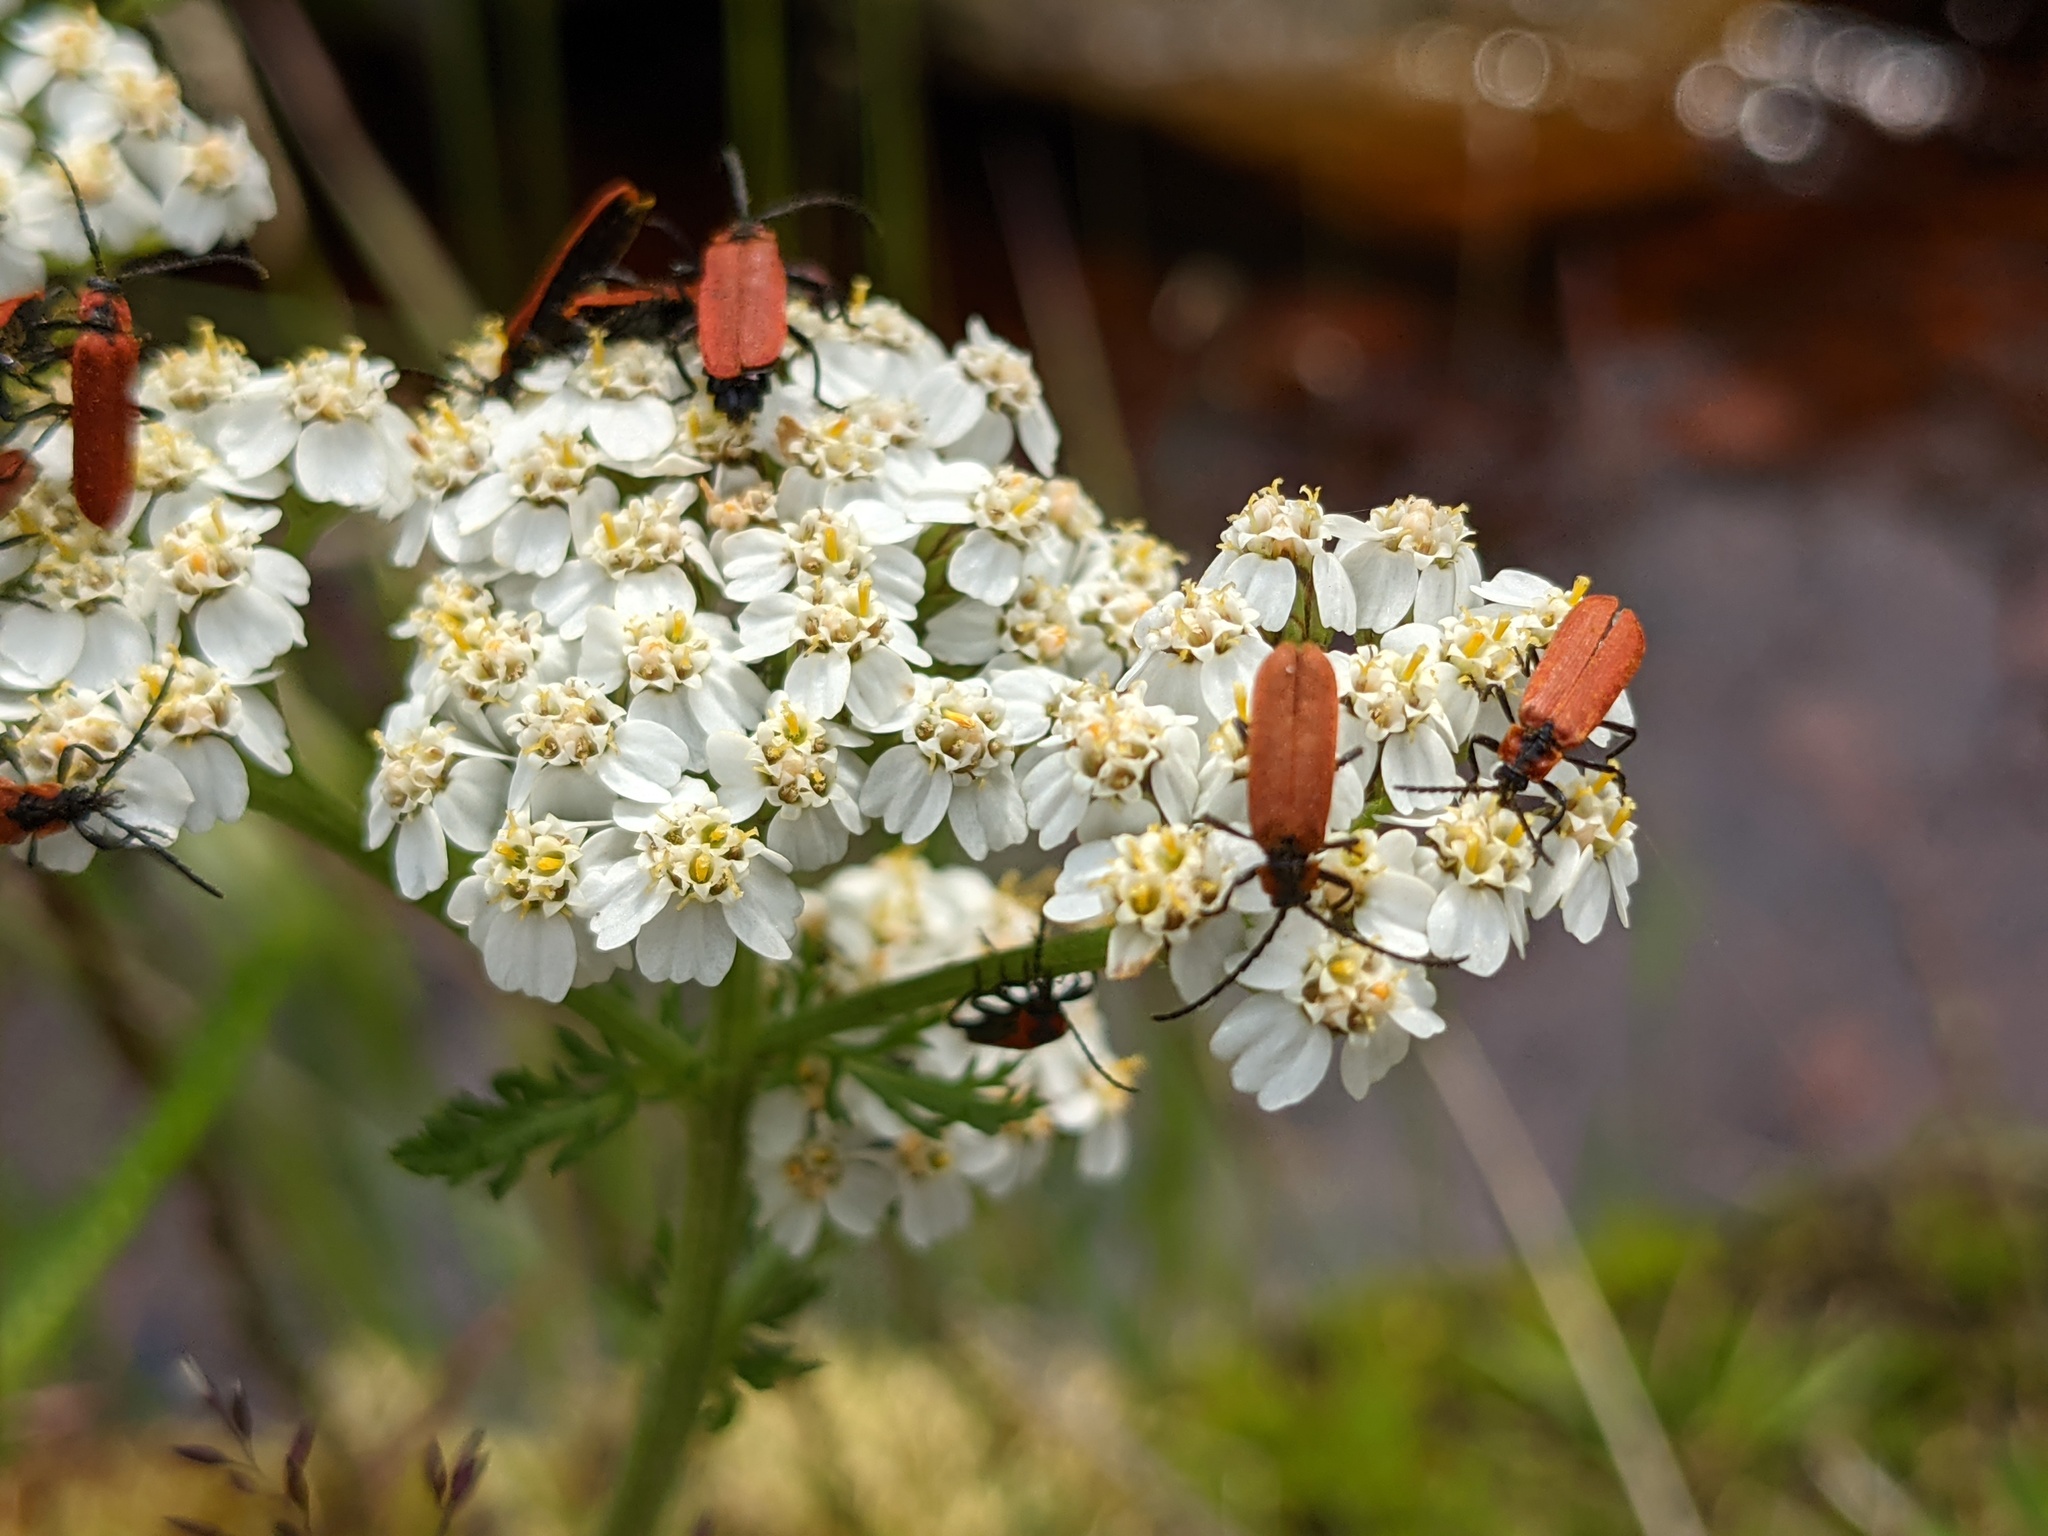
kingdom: Animalia
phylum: Arthropoda
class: Insecta
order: Coleoptera
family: Lycidae
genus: Lygistopterus
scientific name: Lygistopterus sanguineus
